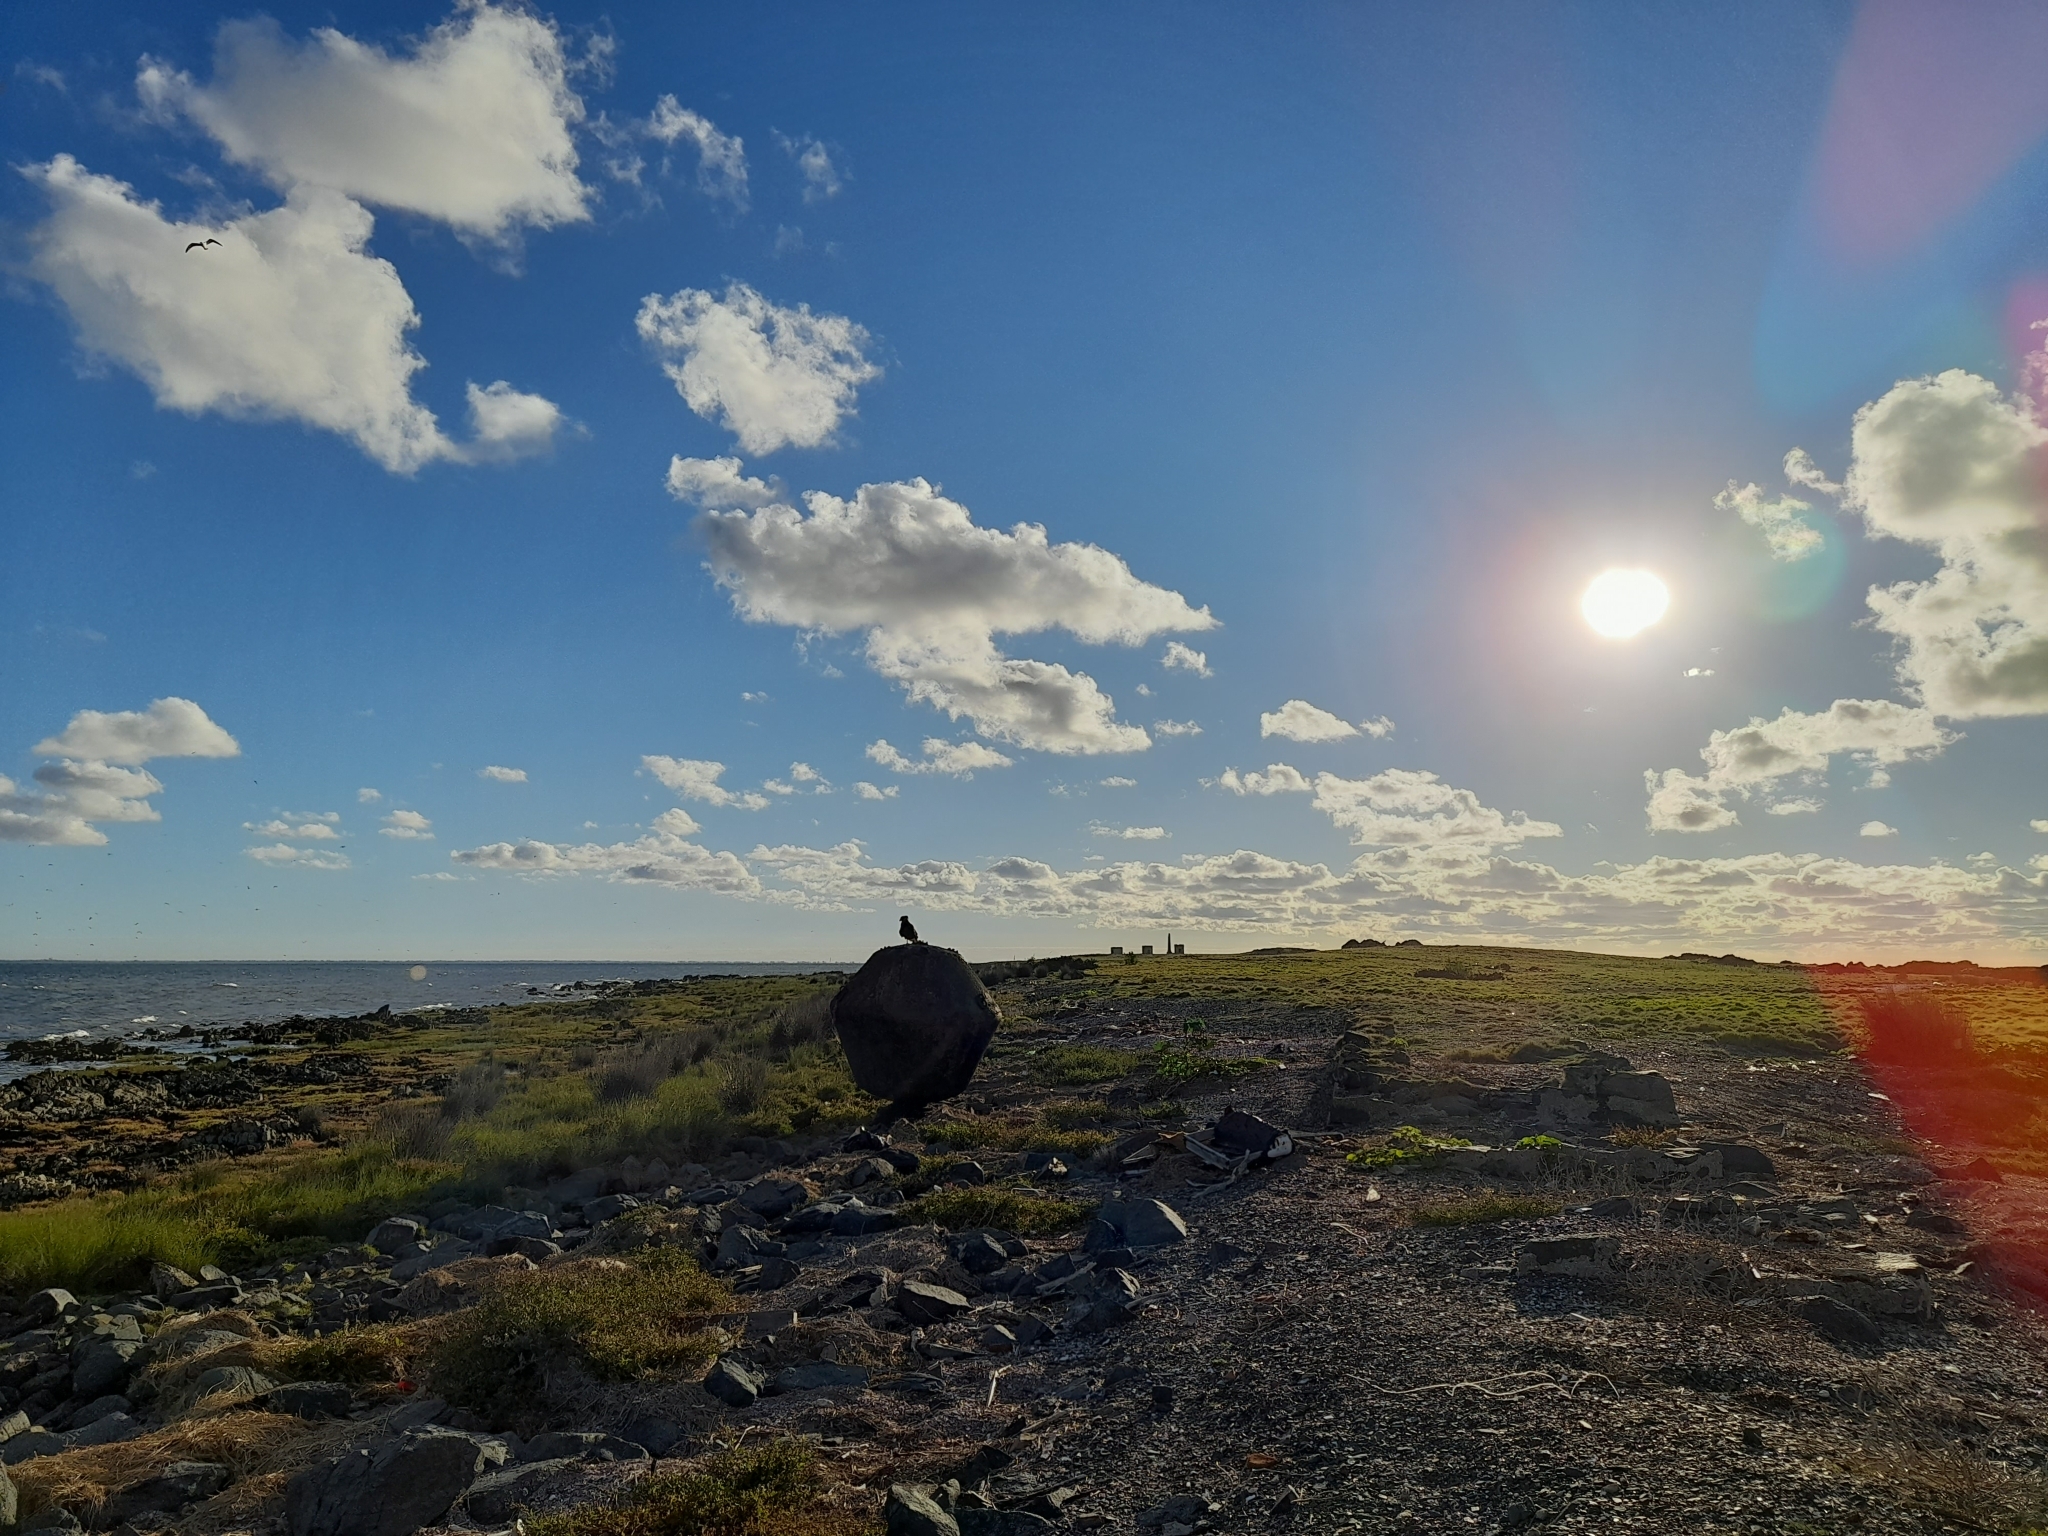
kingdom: Animalia
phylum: Chordata
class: Aves
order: Falconiformes
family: Falconidae
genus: Caracara
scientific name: Caracara plancus
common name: Southern caracara
